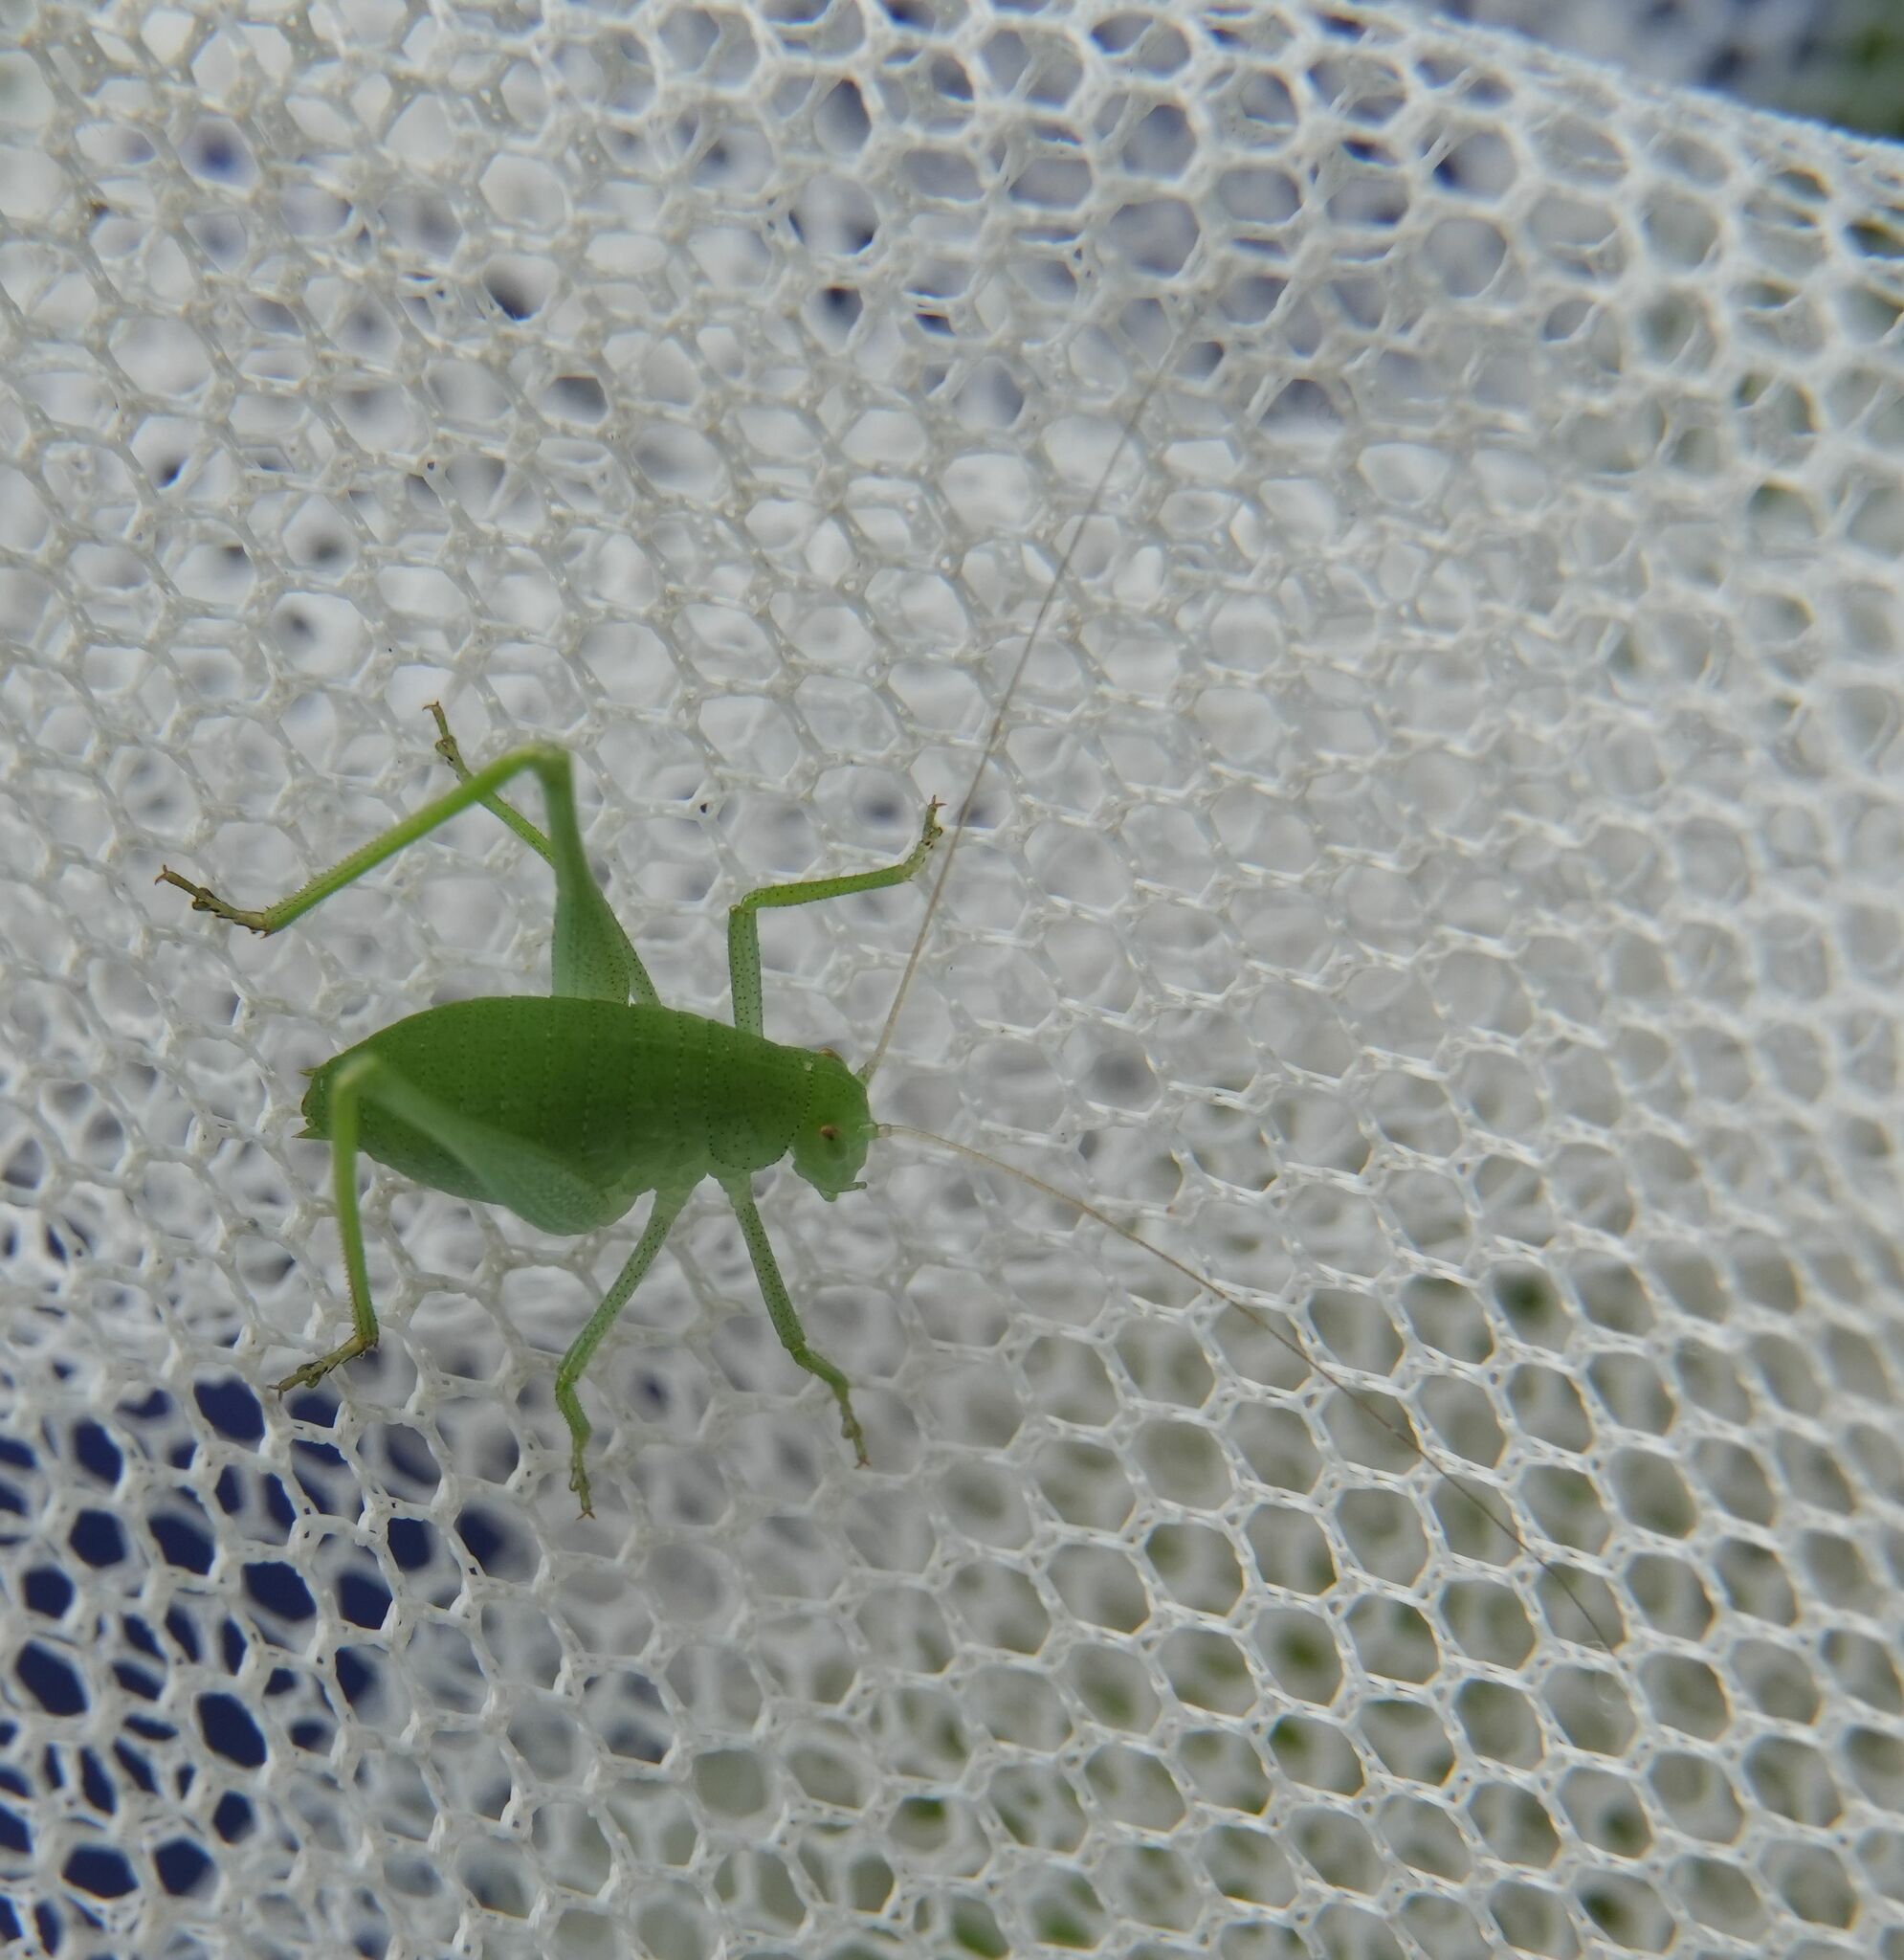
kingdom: Animalia
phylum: Arthropoda
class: Insecta
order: Orthoptera
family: Tettigoniidae
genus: Amblycorypha
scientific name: Amblycorypha oblongifolia
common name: Oblong-winged katydid
